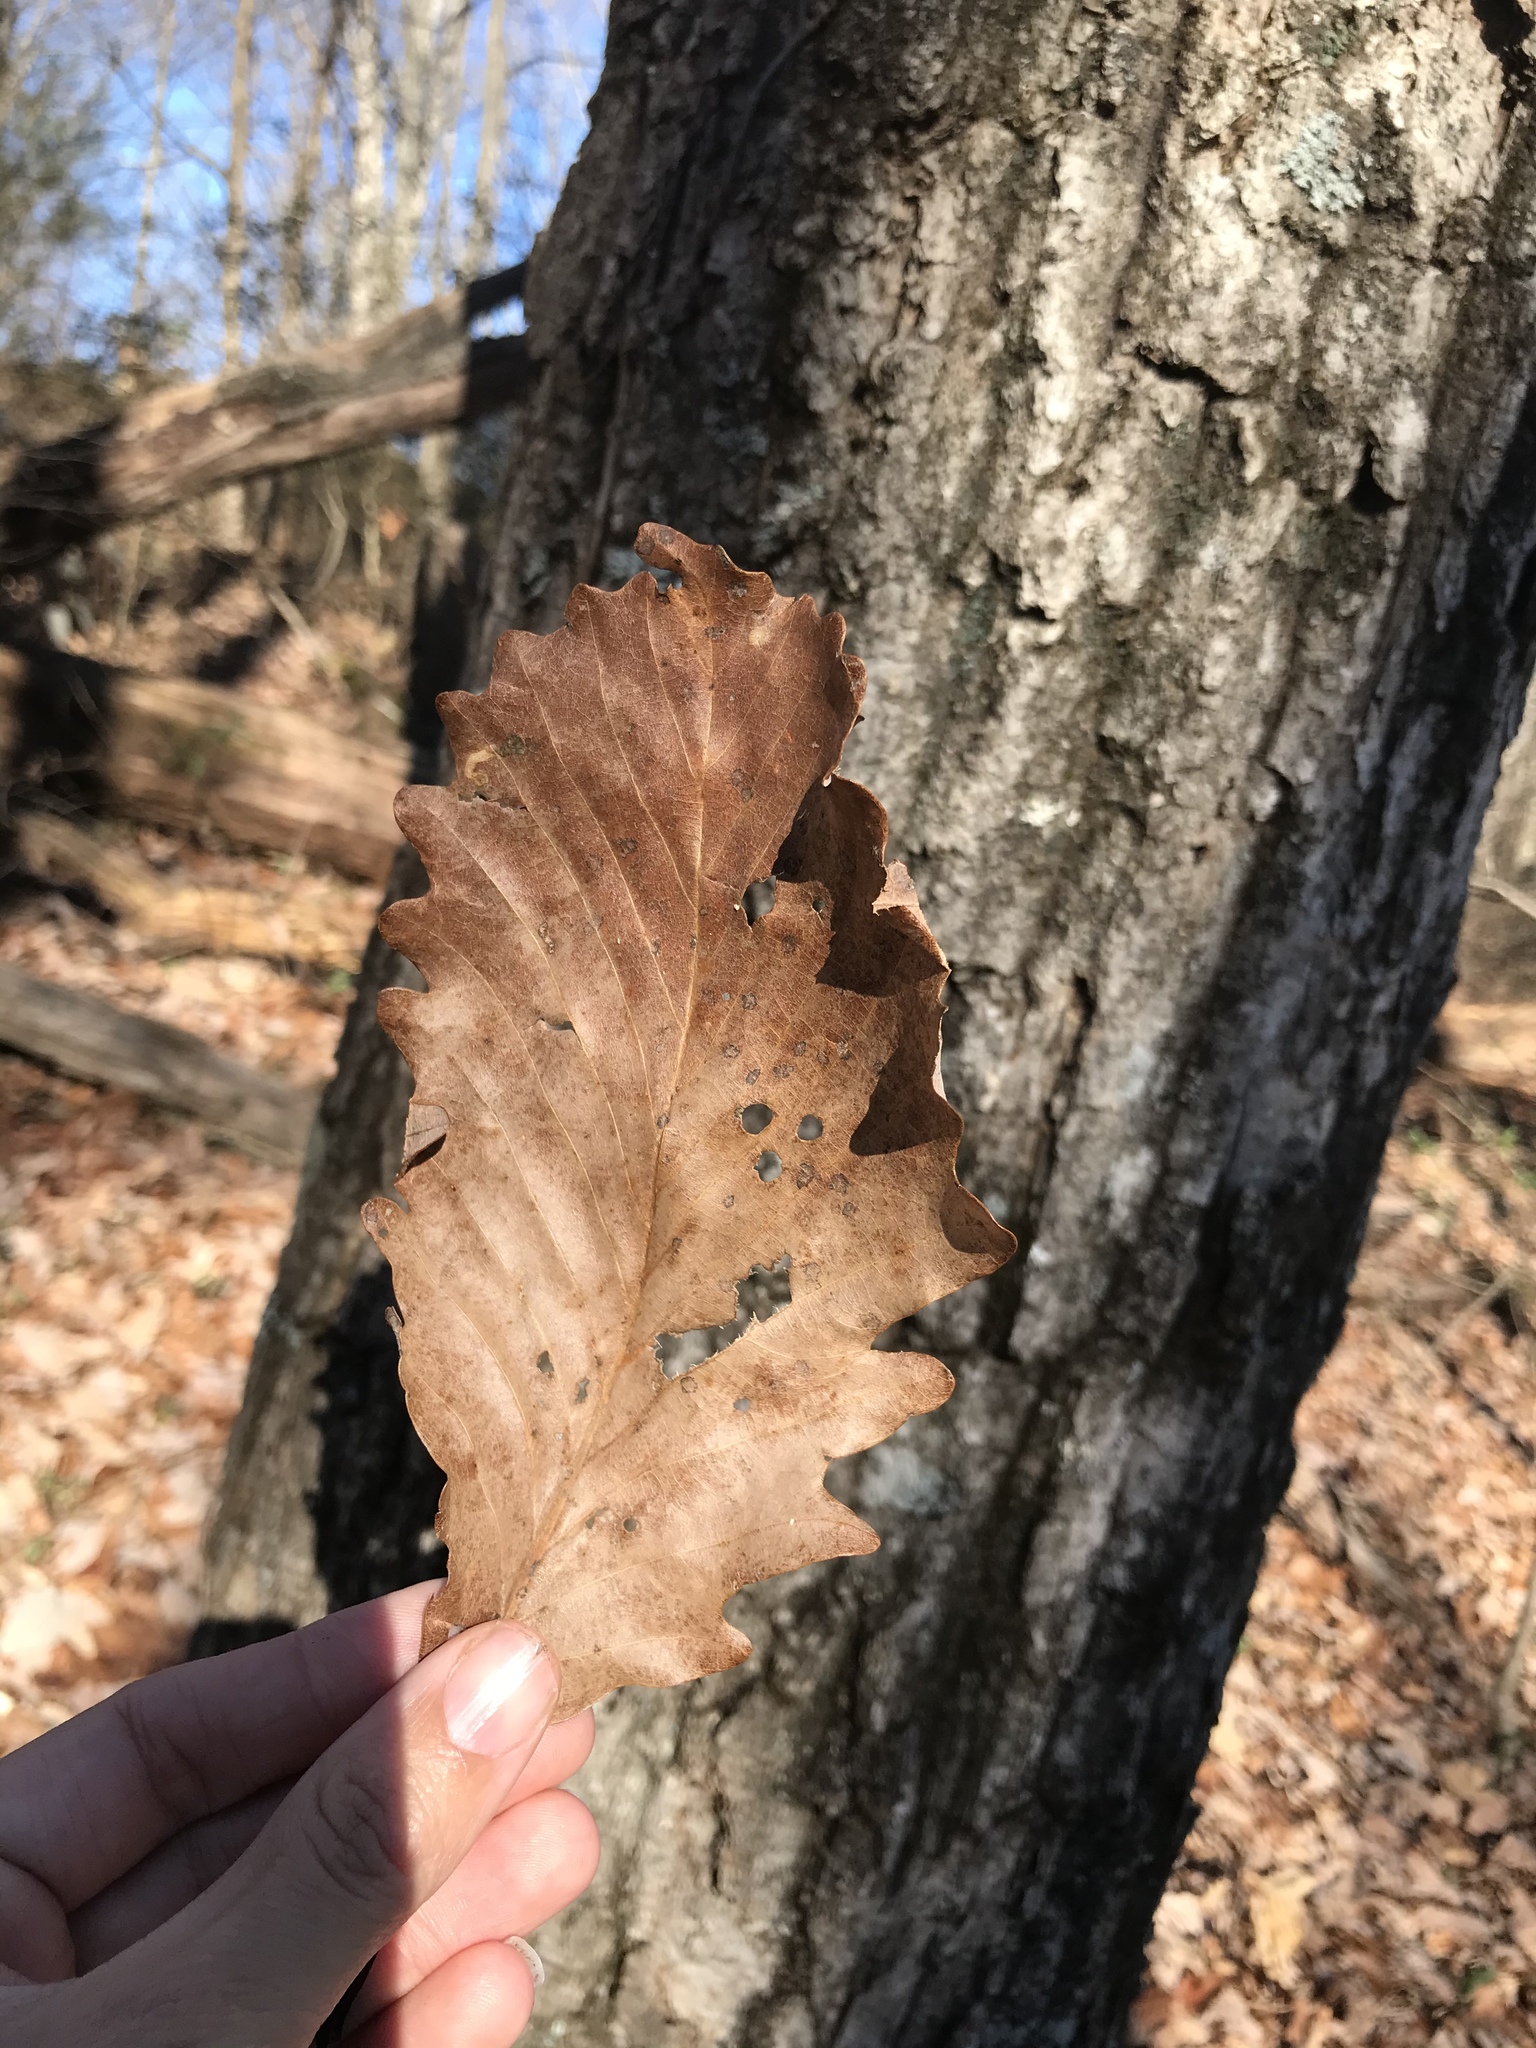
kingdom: Plantae
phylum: Tracheophyta
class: Magnoliopsida
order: Fagales
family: Fagaceae
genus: Quercus
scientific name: Quercus montana
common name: Chestnut oak
